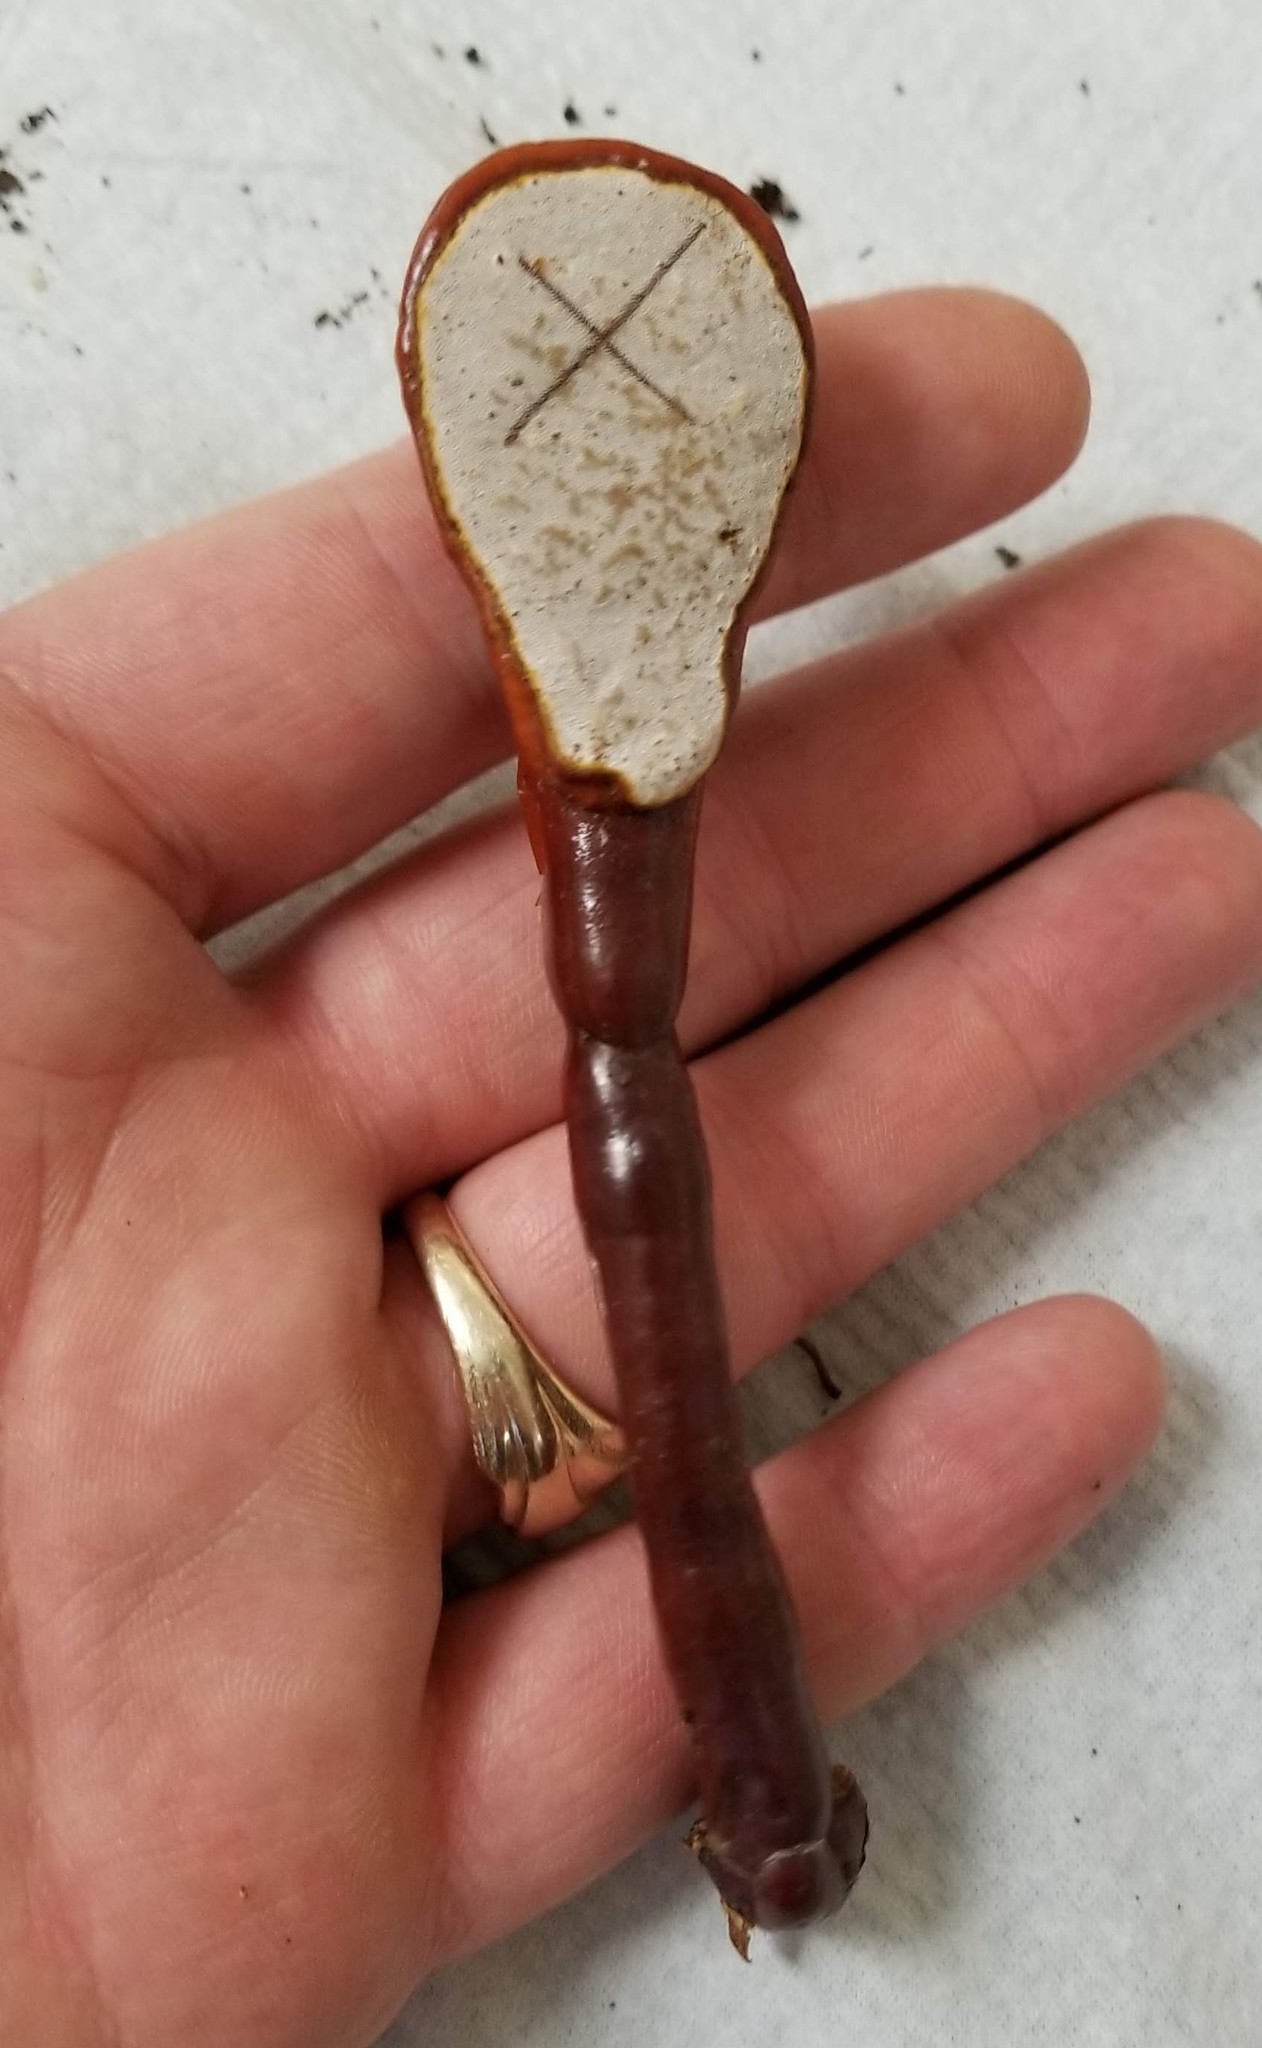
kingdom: Fungi
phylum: Basidiomycota
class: Agaricomycetes
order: Polyporales
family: Polyporaceae
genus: Ganoderma
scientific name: Ganoderma tsugae
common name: Hemlock varnish shelf
